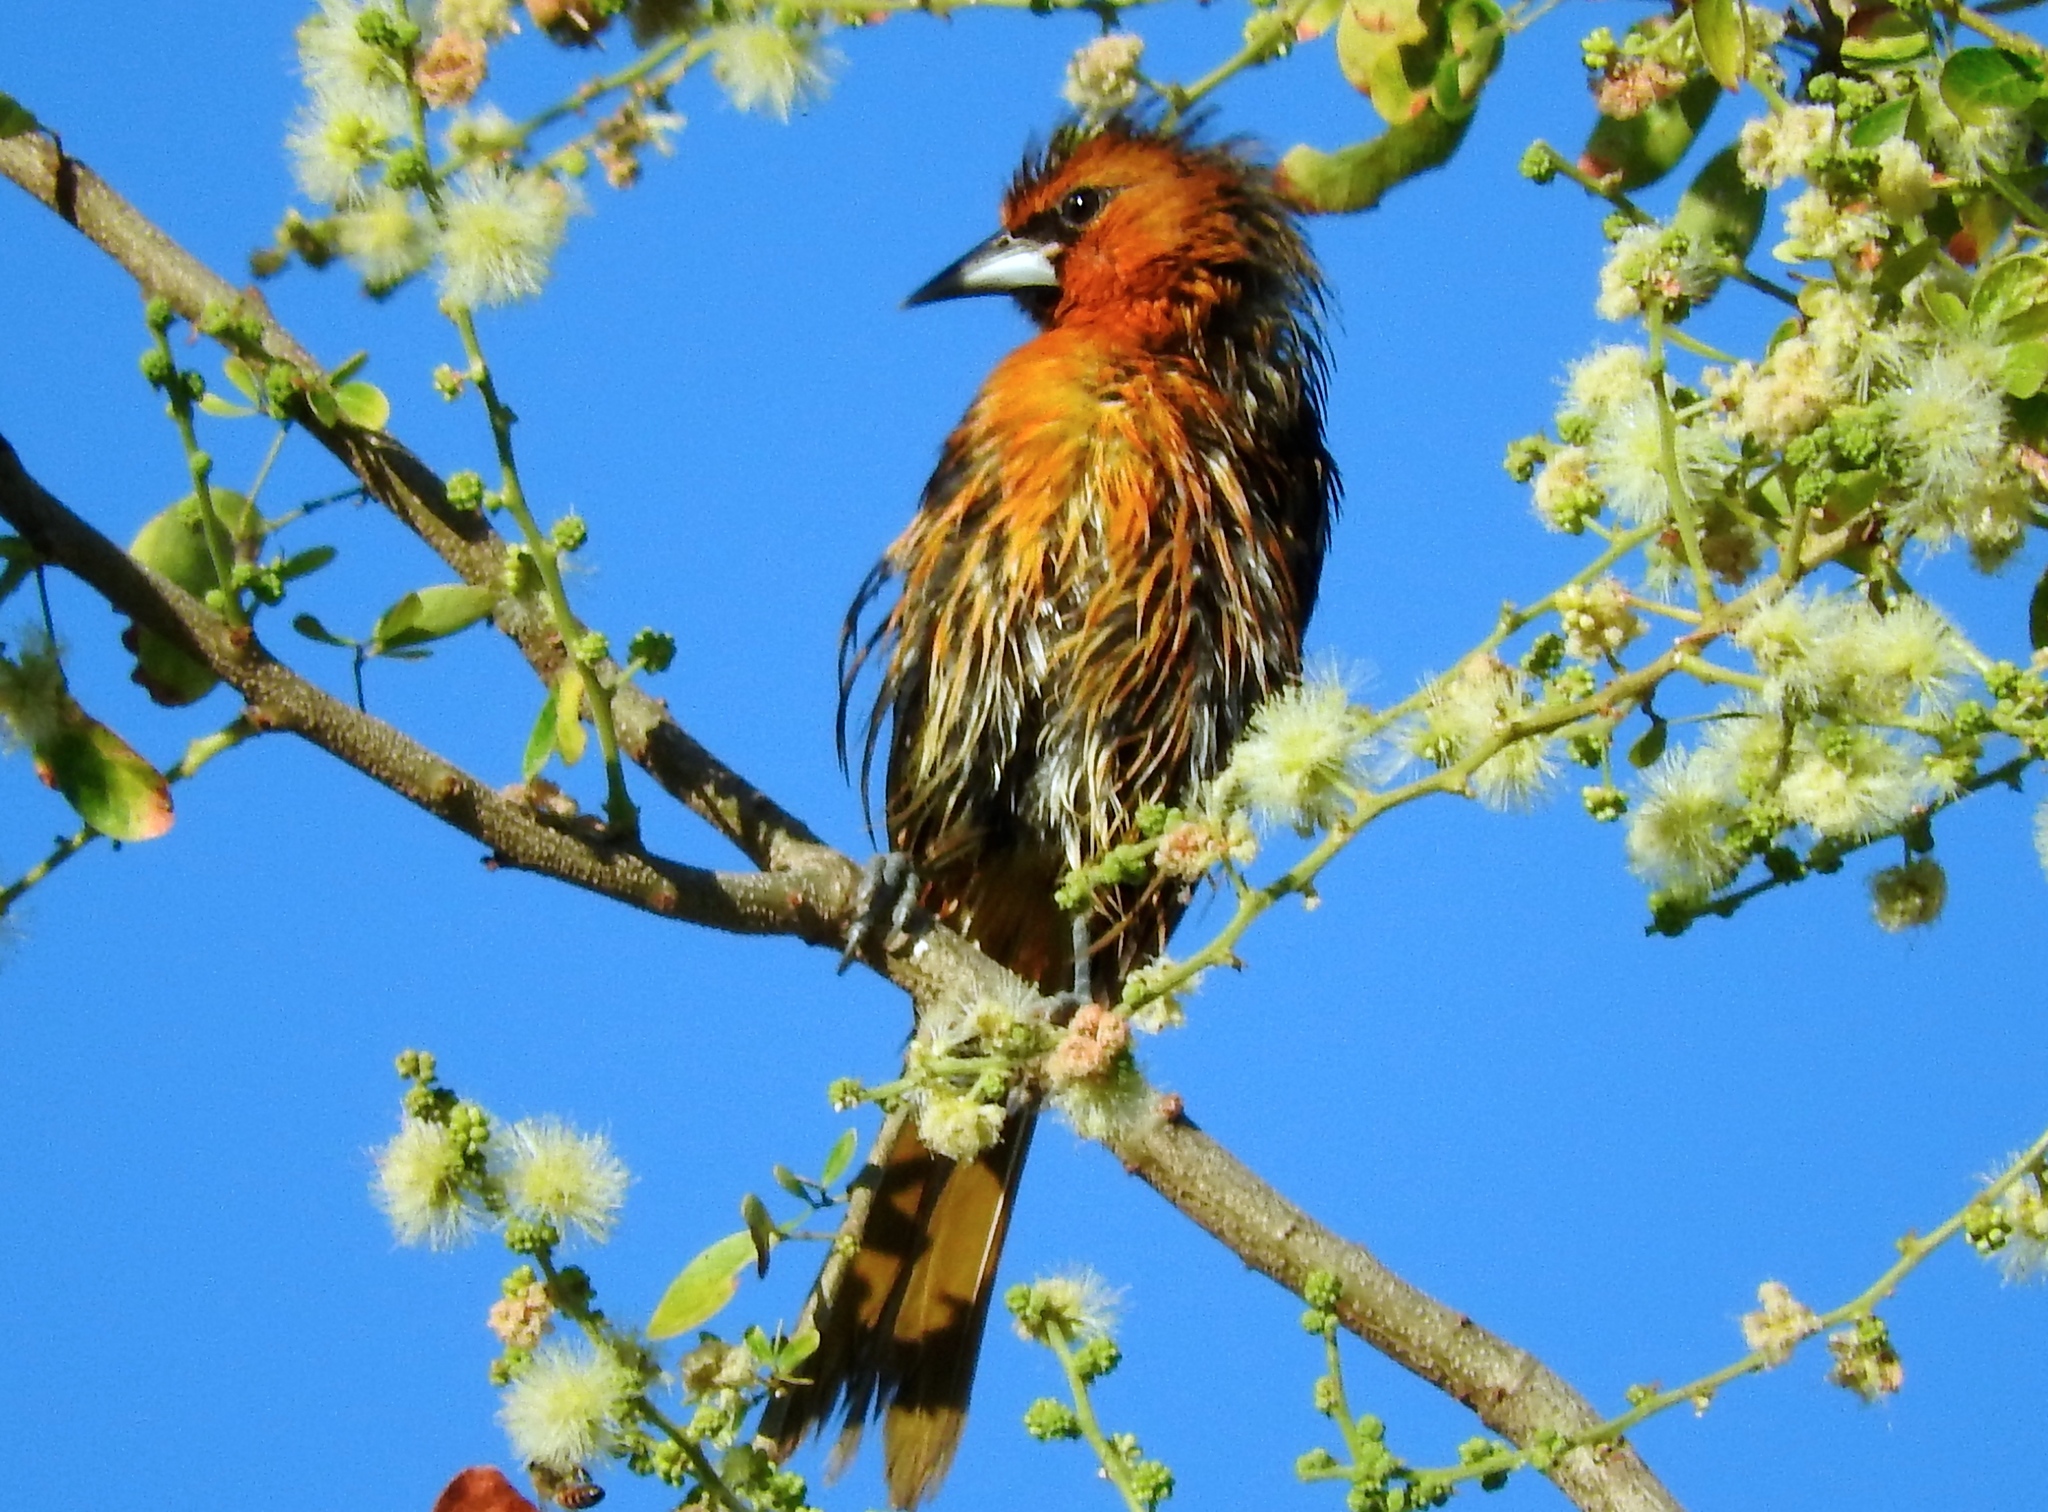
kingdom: Animalia
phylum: Chordata
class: Aves
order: Passeriformes
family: Icteridae
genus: Icterus
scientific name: Icterus pustulatus
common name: Streak-backed oriole
